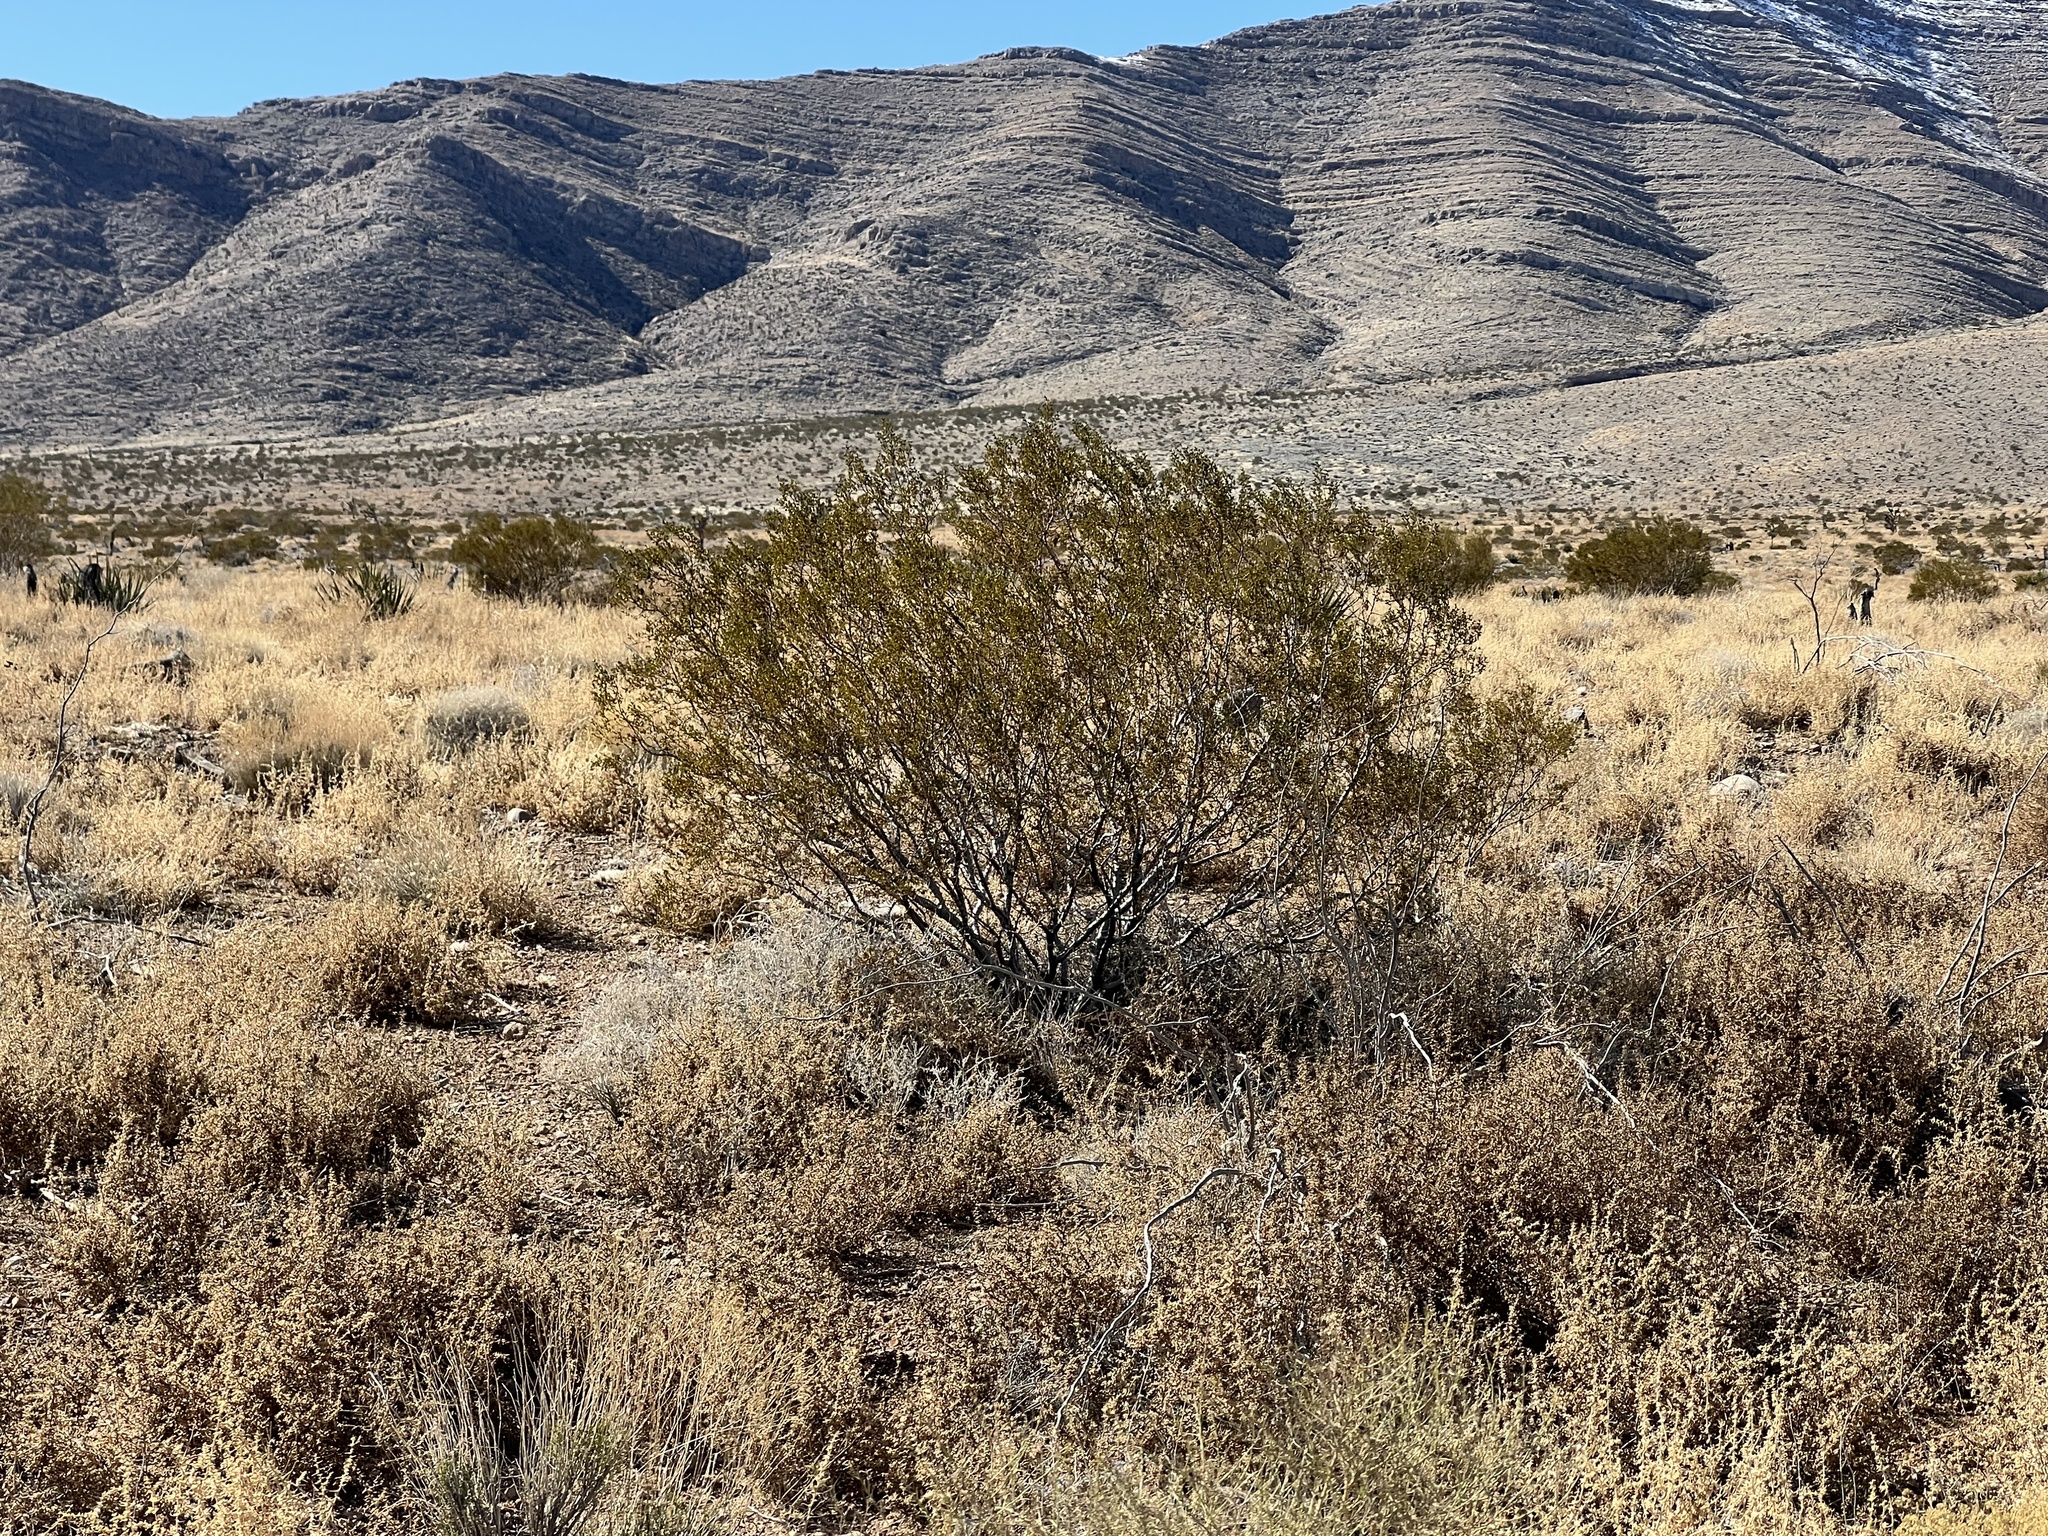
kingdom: Plantae
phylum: Tracheophyta
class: Magnoliopsida
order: Zygophyllales
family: Zygophyllaceae
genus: Larrea
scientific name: Larrea tridentata
